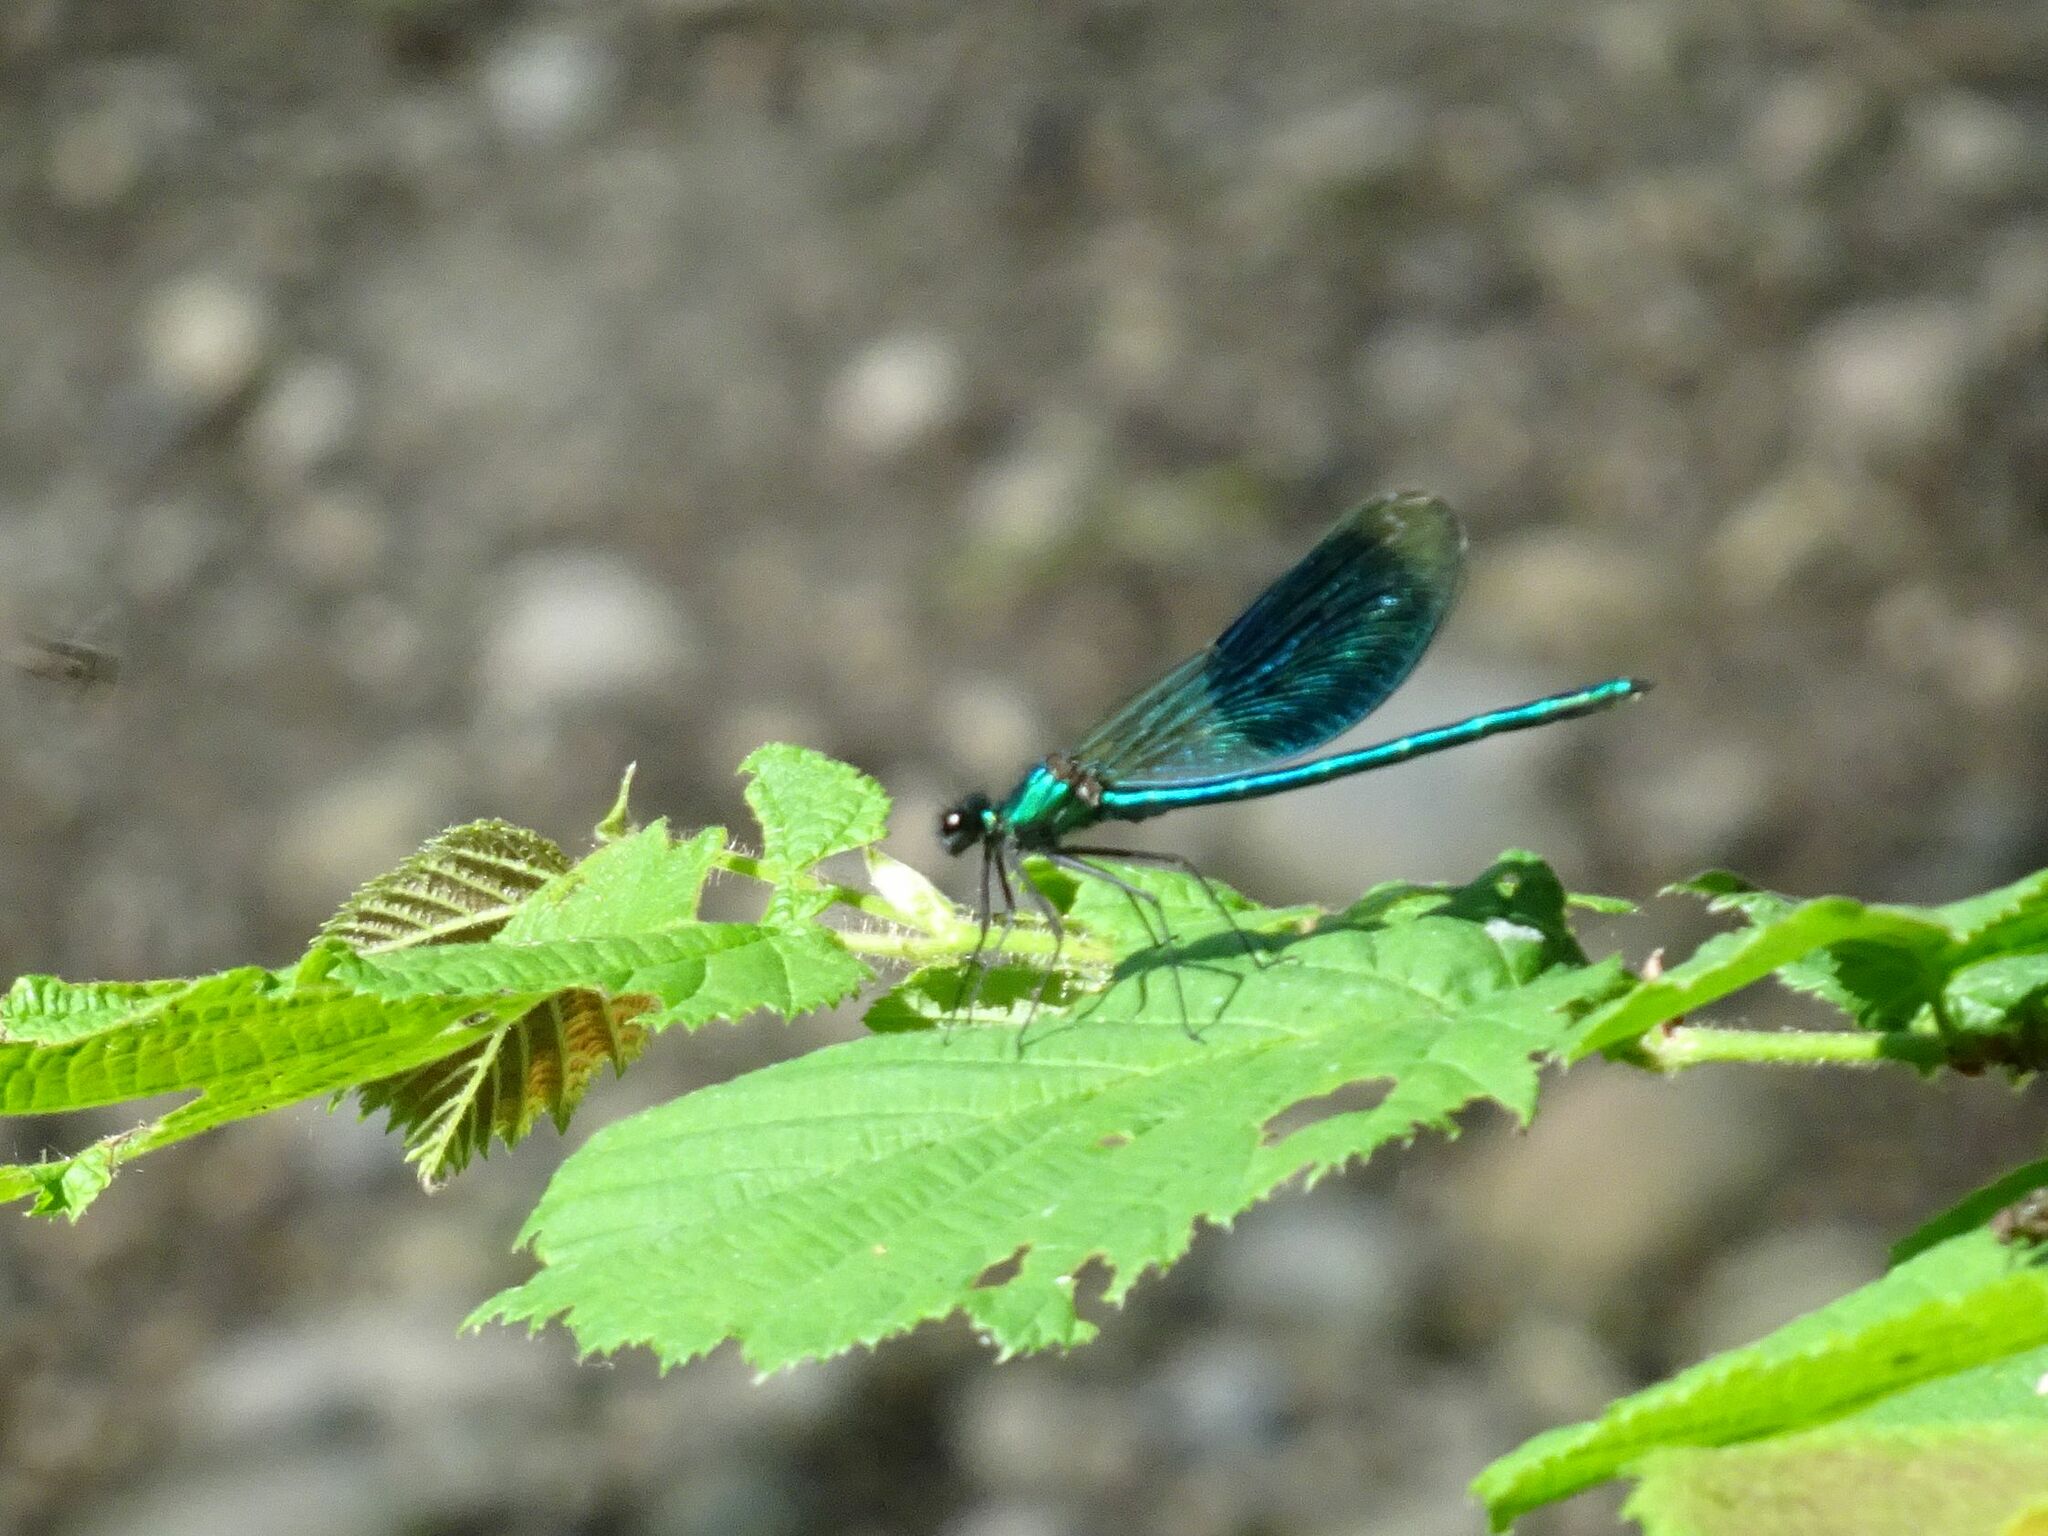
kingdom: Animalia
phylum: Arthropoda
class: Insecta
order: Odonata
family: Calopterygidae
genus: Calopteryx
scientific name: Calopteryx splendens
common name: Banded demoiselle
